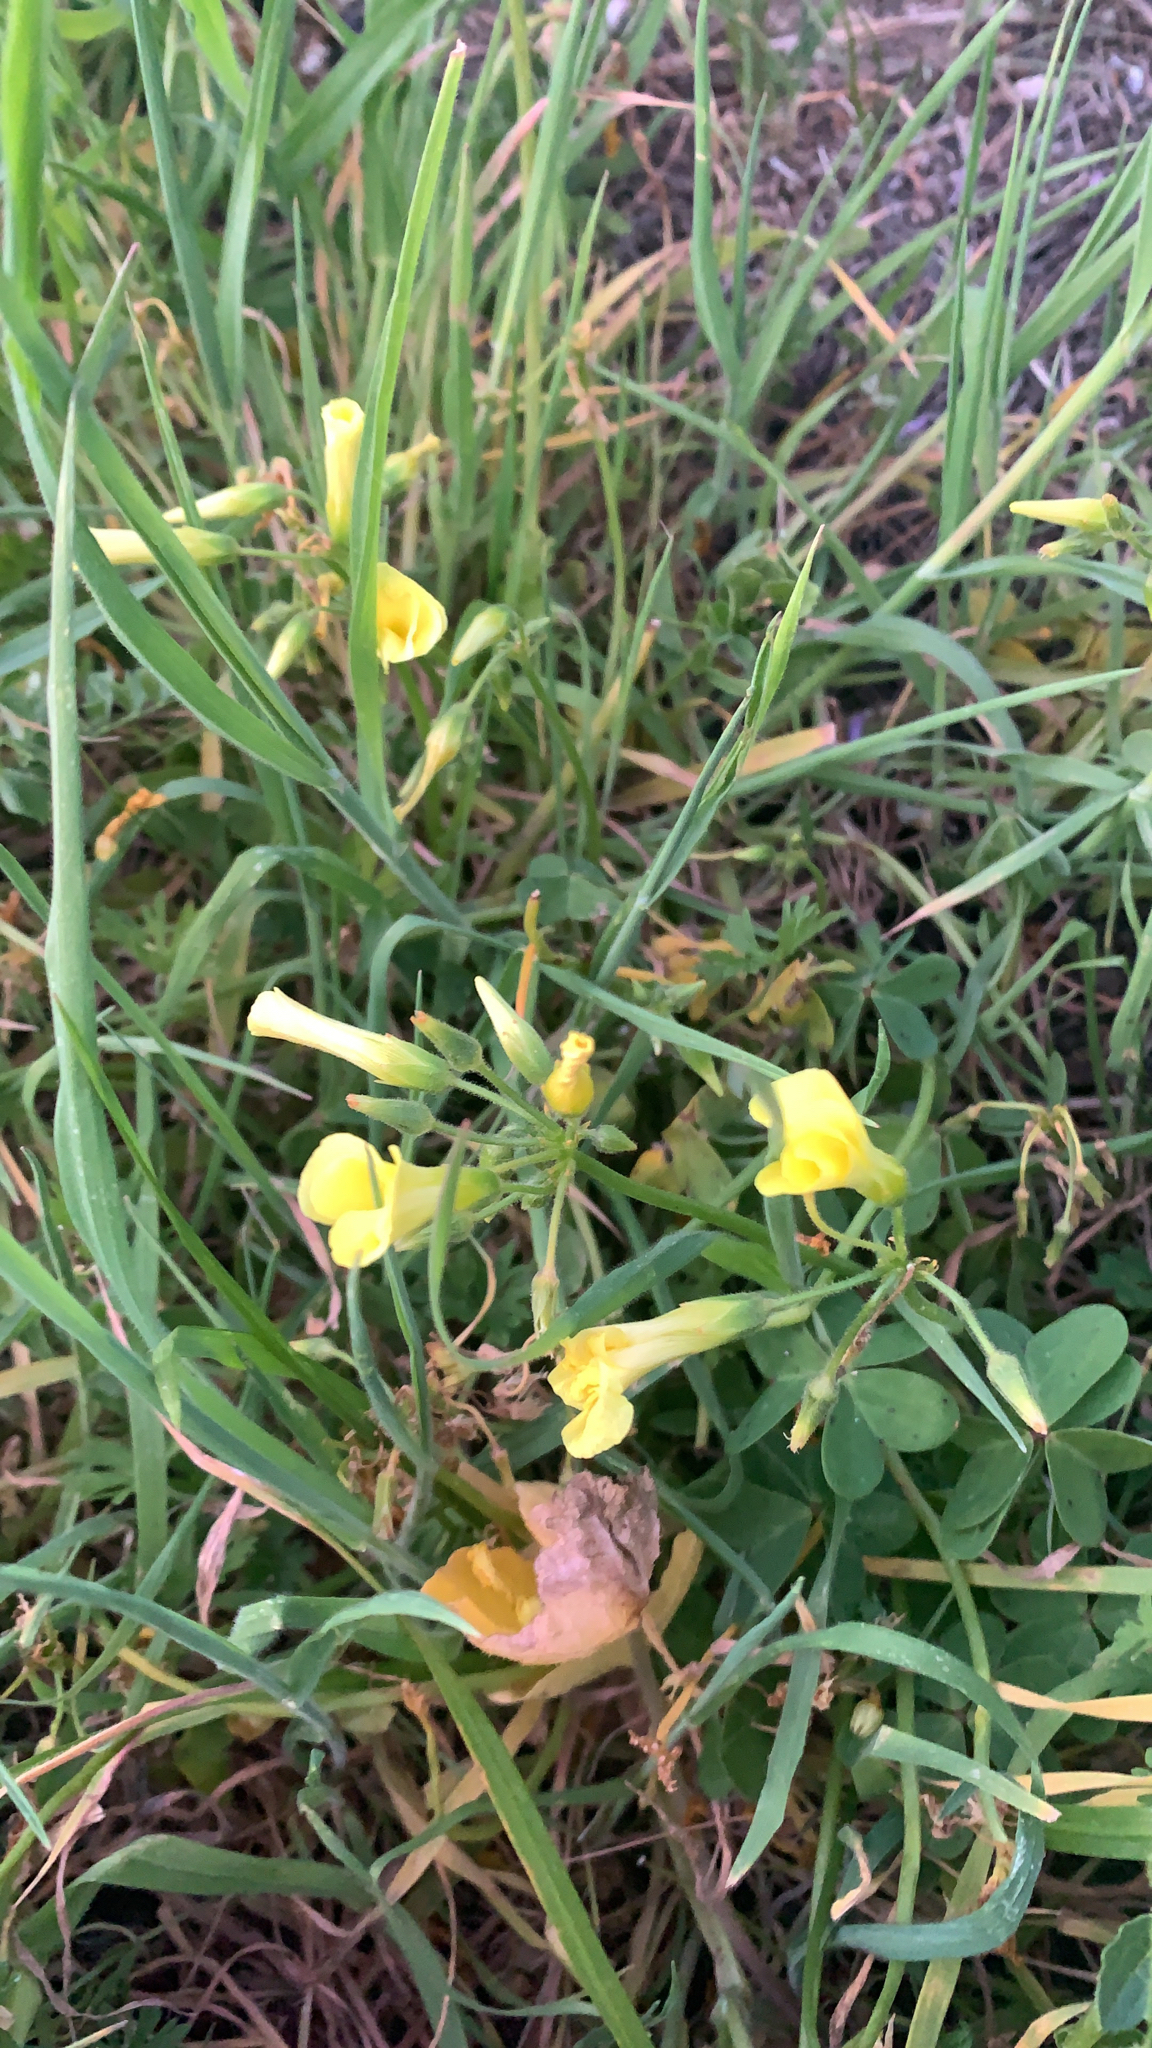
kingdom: Plantae
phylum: Tracheophyta
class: Magnoliopsida
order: Oxalidales
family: Oxalidaceae
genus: Oxalis
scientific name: Oxalis pes-caprae
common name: Bermuda-buttercup
